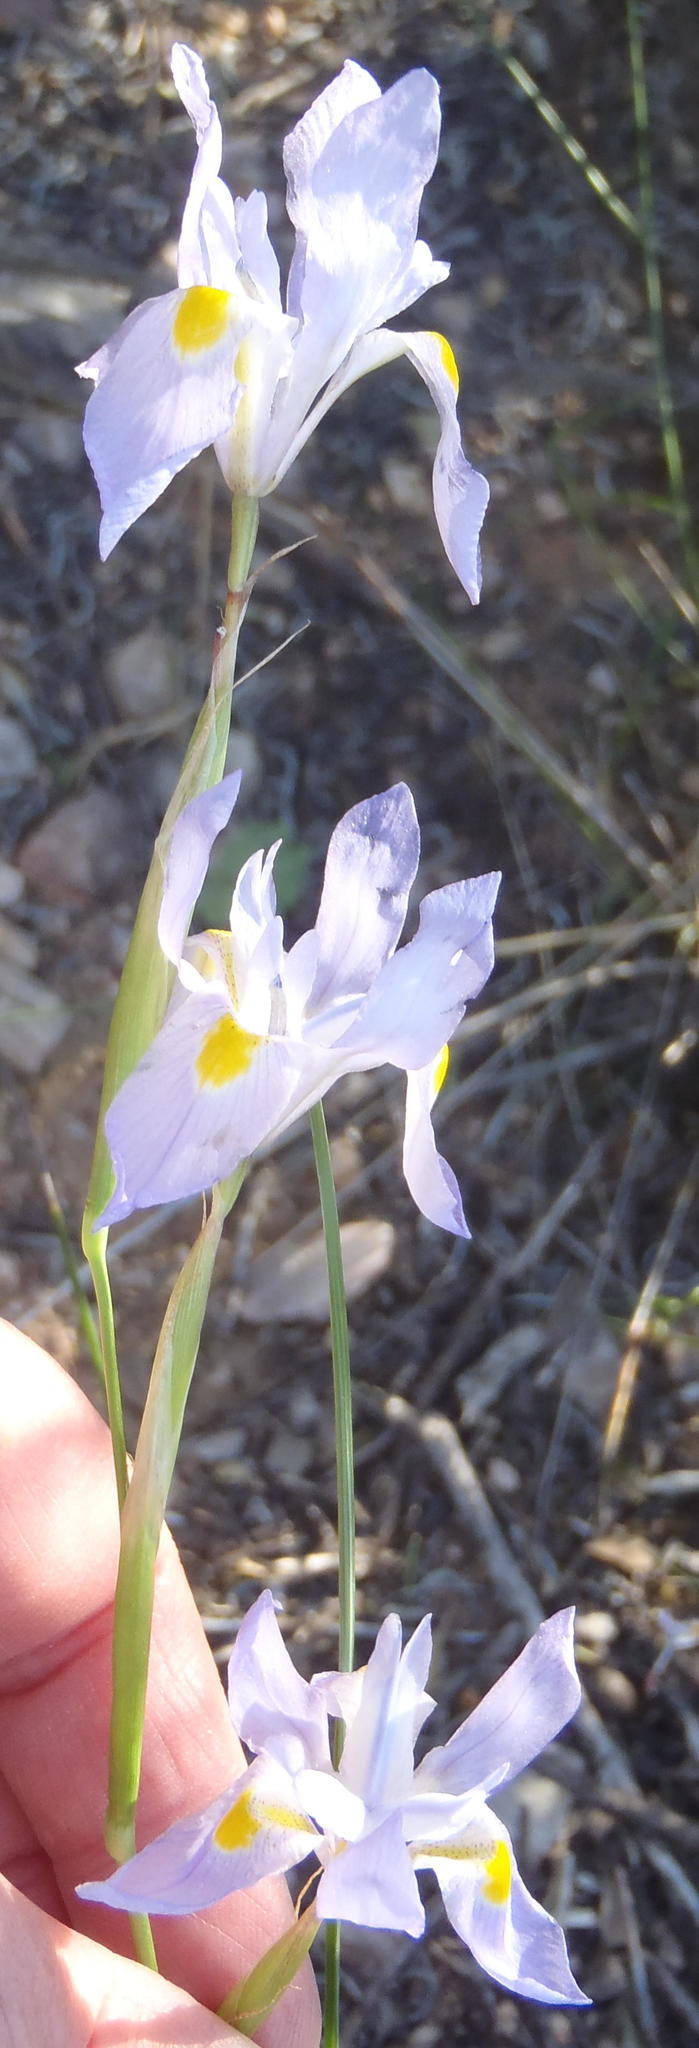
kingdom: Plantae
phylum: Tracheophyta
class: Liliopsida
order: Asparagales
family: Iridaceae
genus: Moraea
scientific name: Moraea polystachya
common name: Blue-tulip
